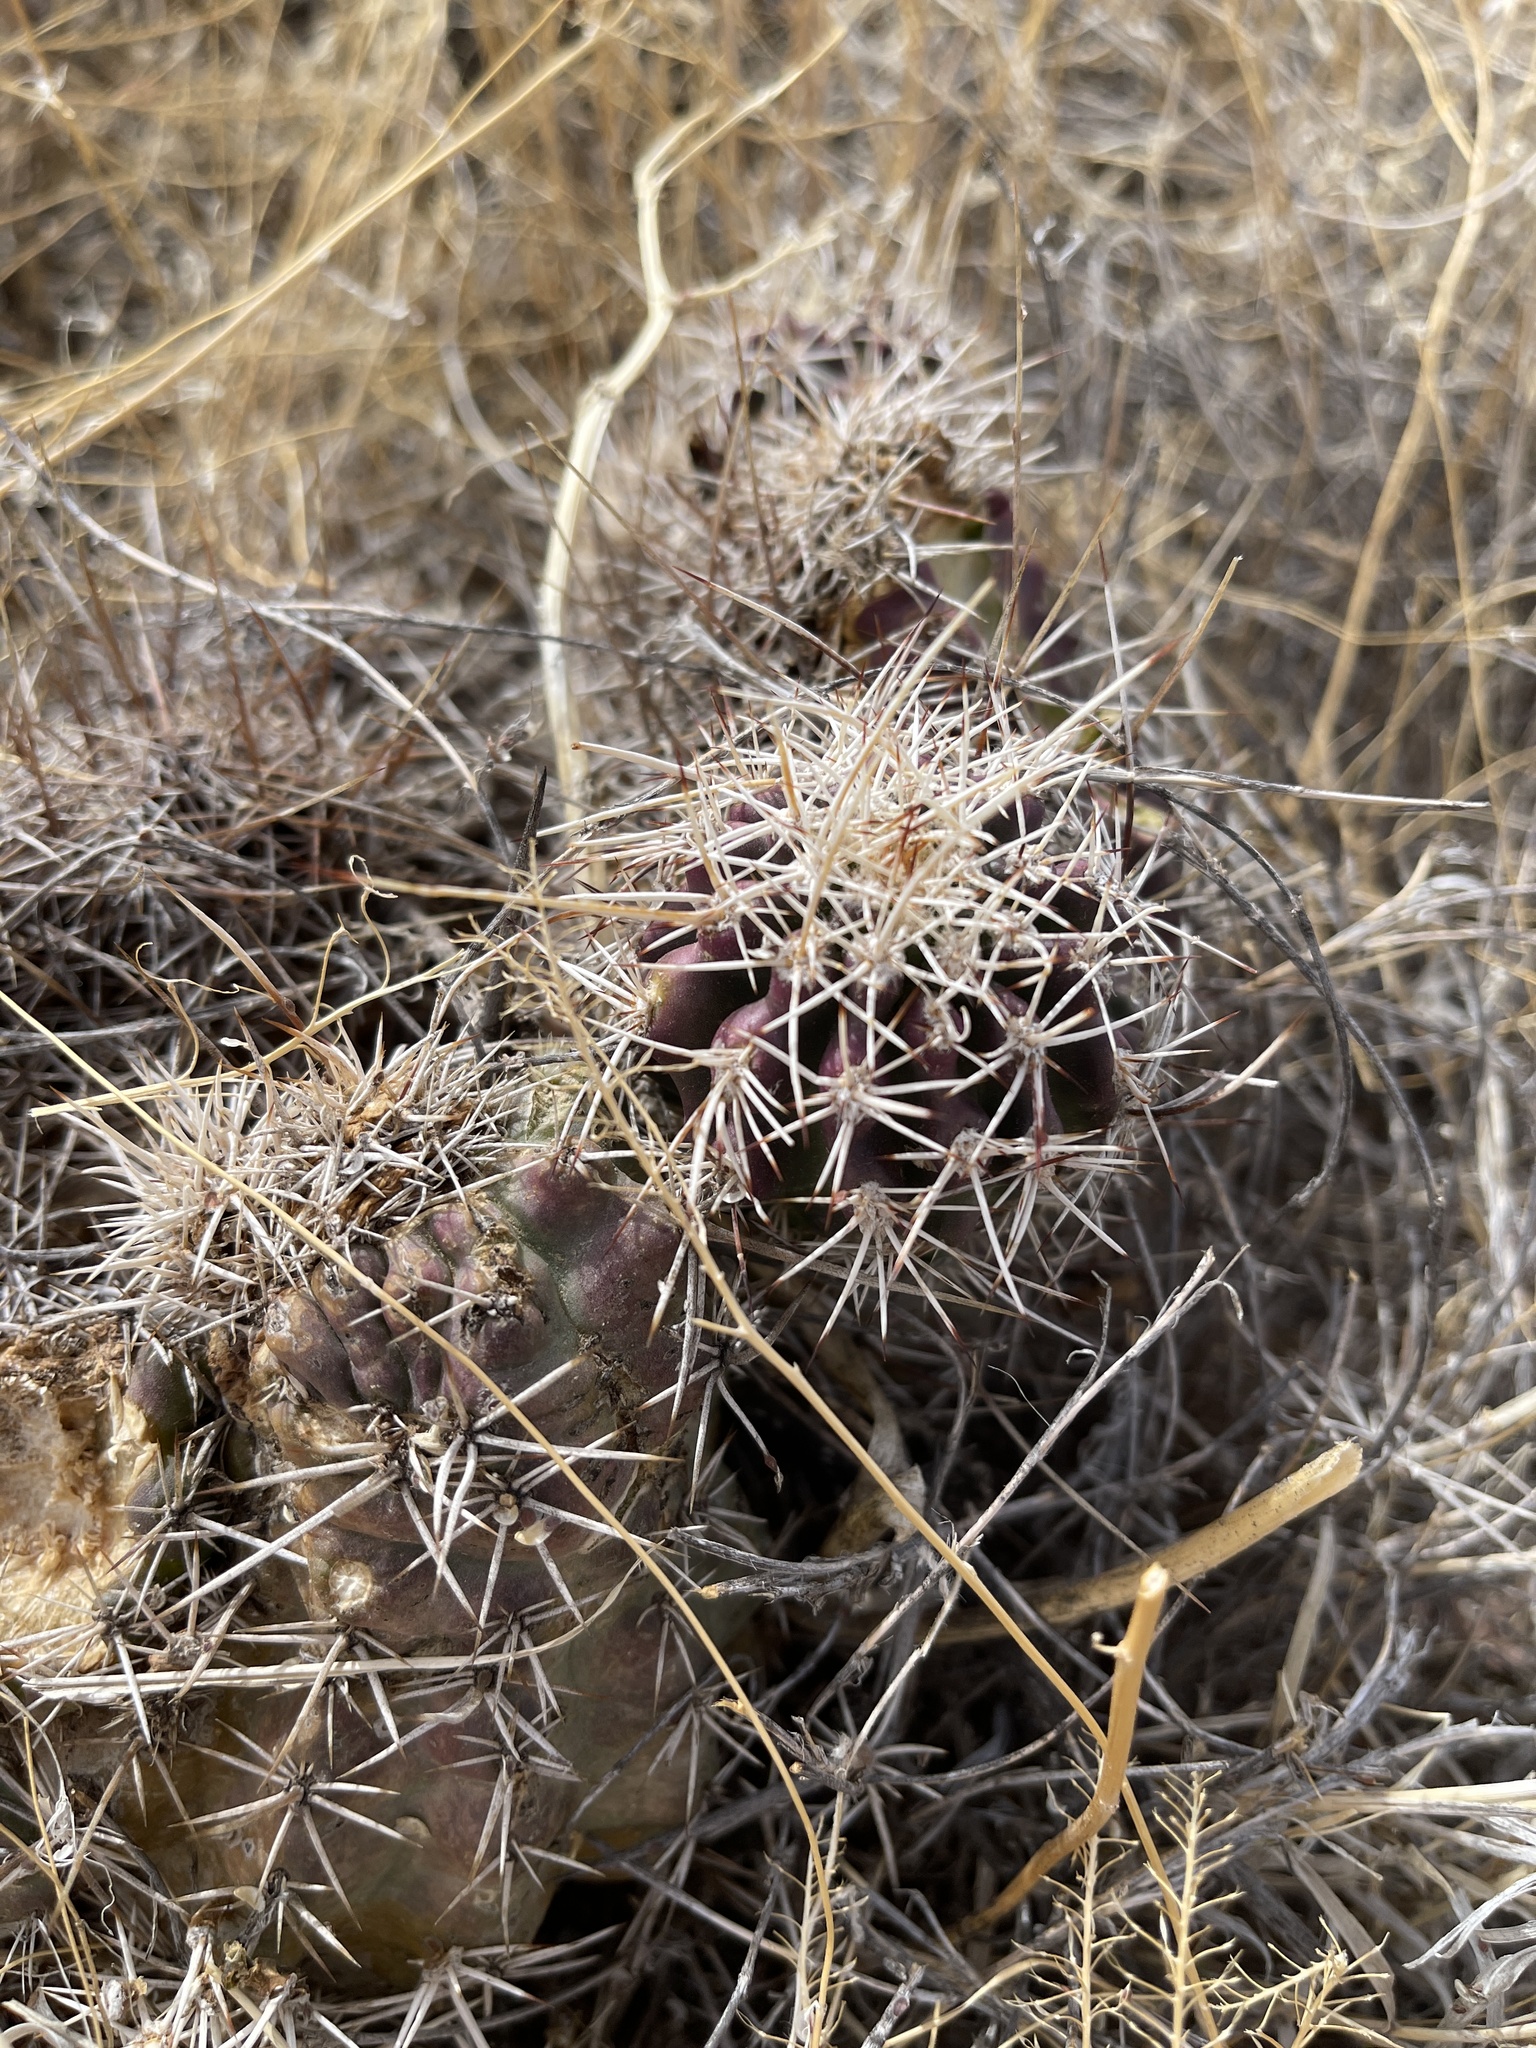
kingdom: Plantae
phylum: Tracheophyta
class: Magnoliopsida
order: Caryophyllales
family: Cactaceae
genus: Echinocereus
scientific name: Echinocereus fendleri
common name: Fendler's hedgehog cactus
